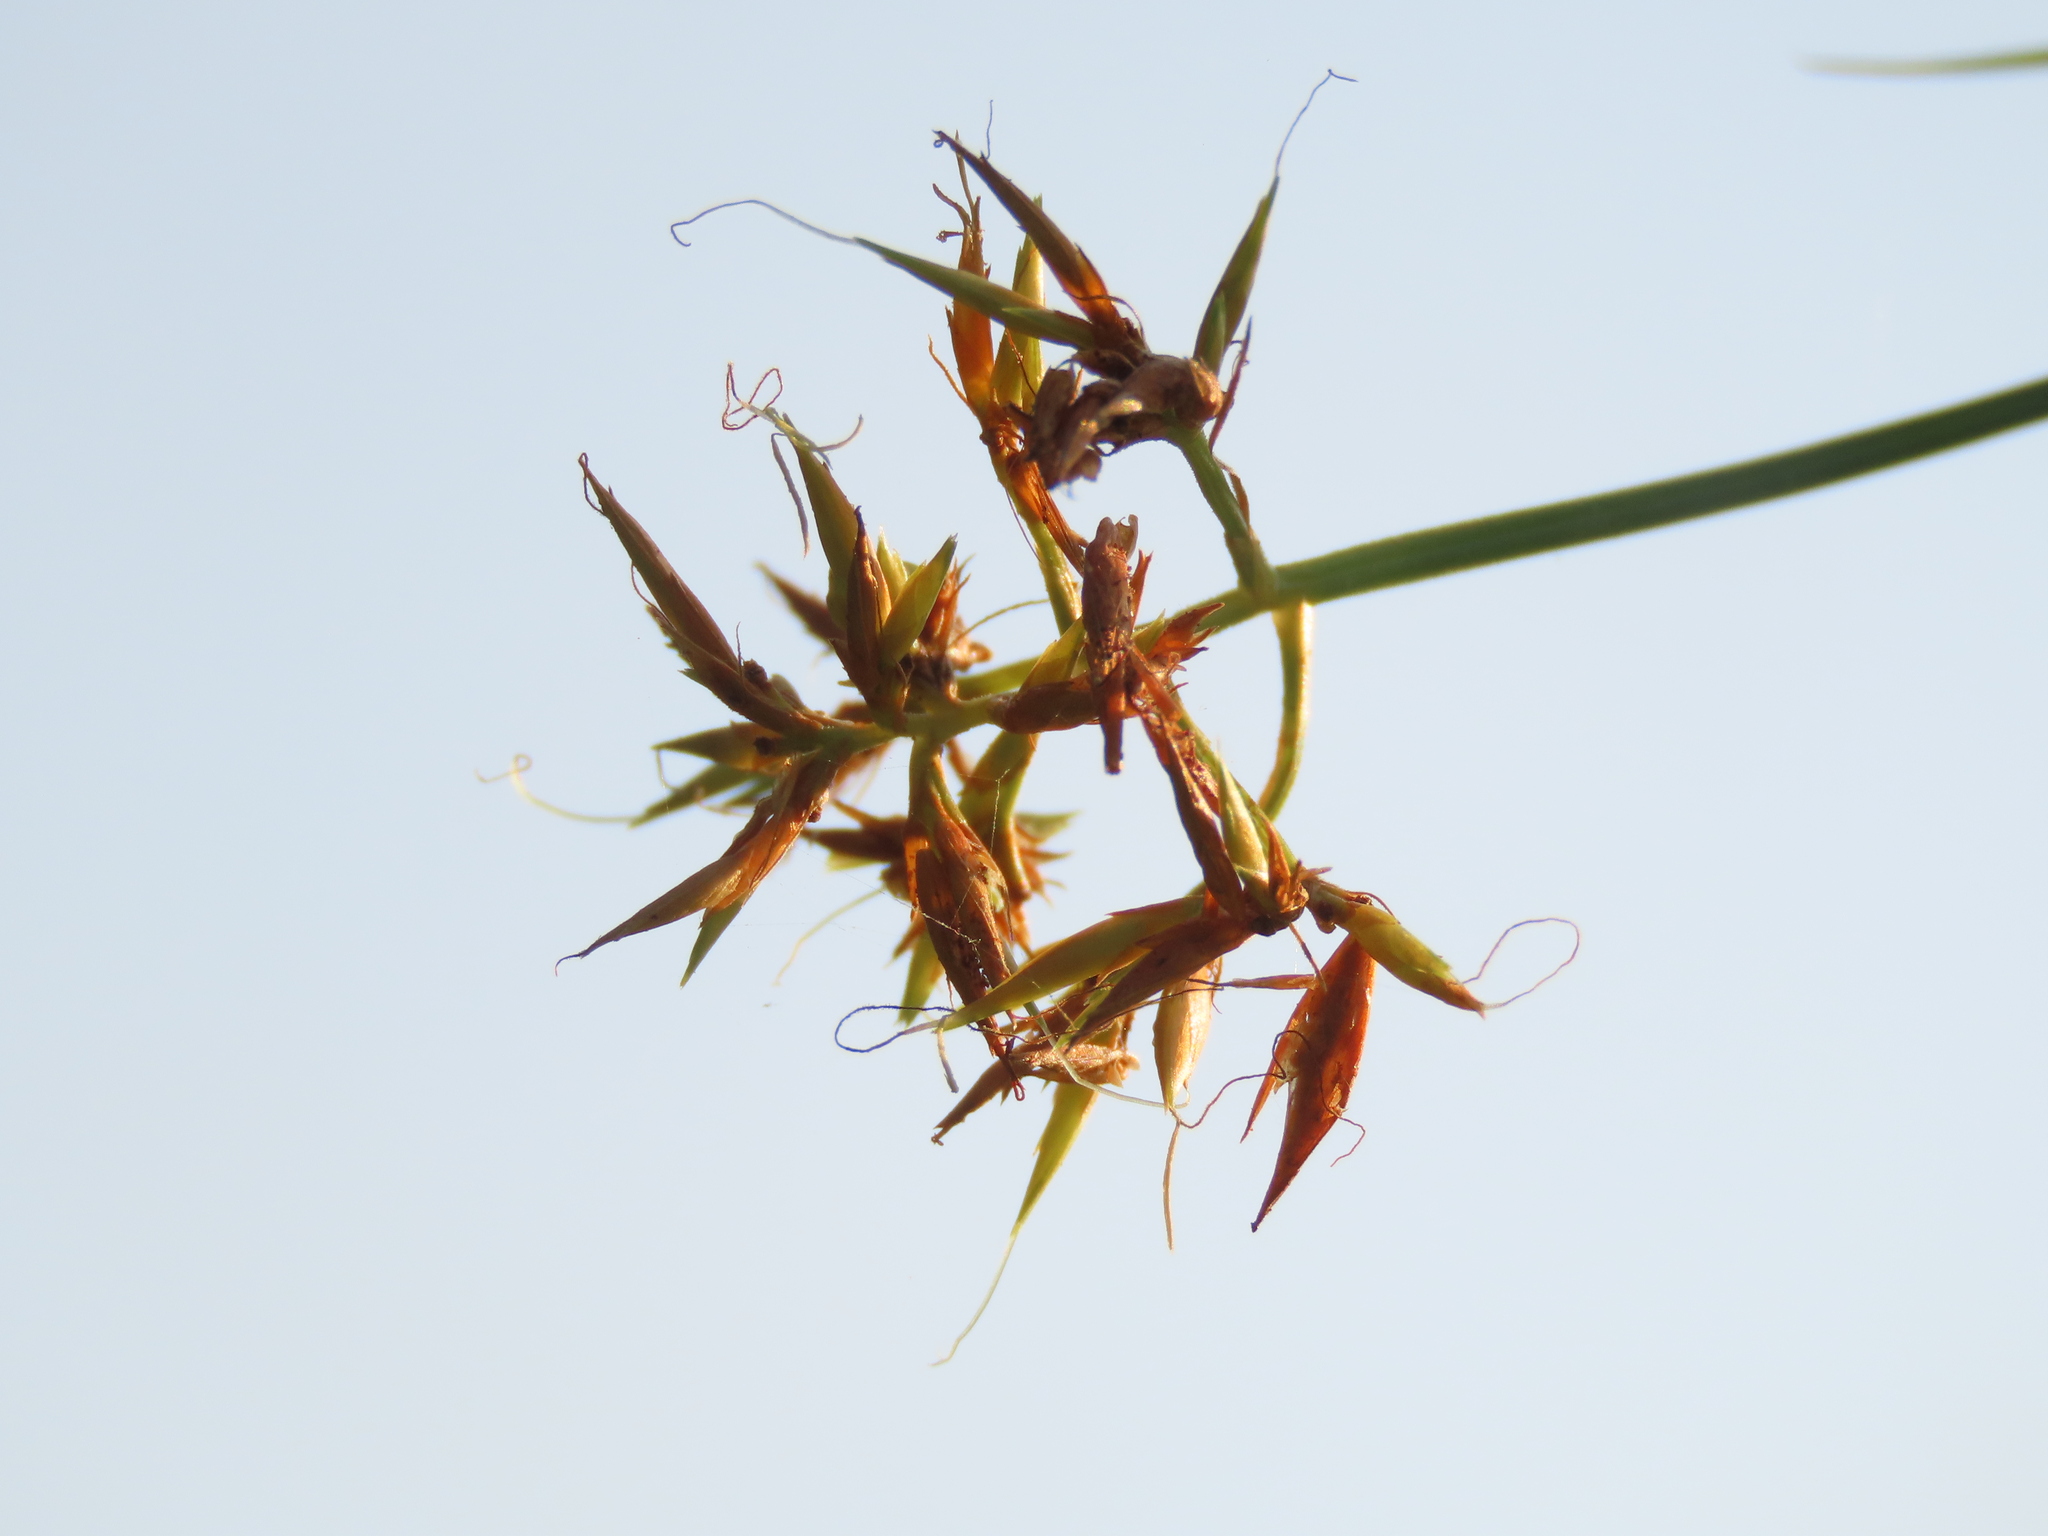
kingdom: Plantae
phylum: Tracheophyta
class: Liliopsida
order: Poales
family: Cyperaceae
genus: Rhynchospora
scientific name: Rhynchospora corymbosa
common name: Golden beak sedge
